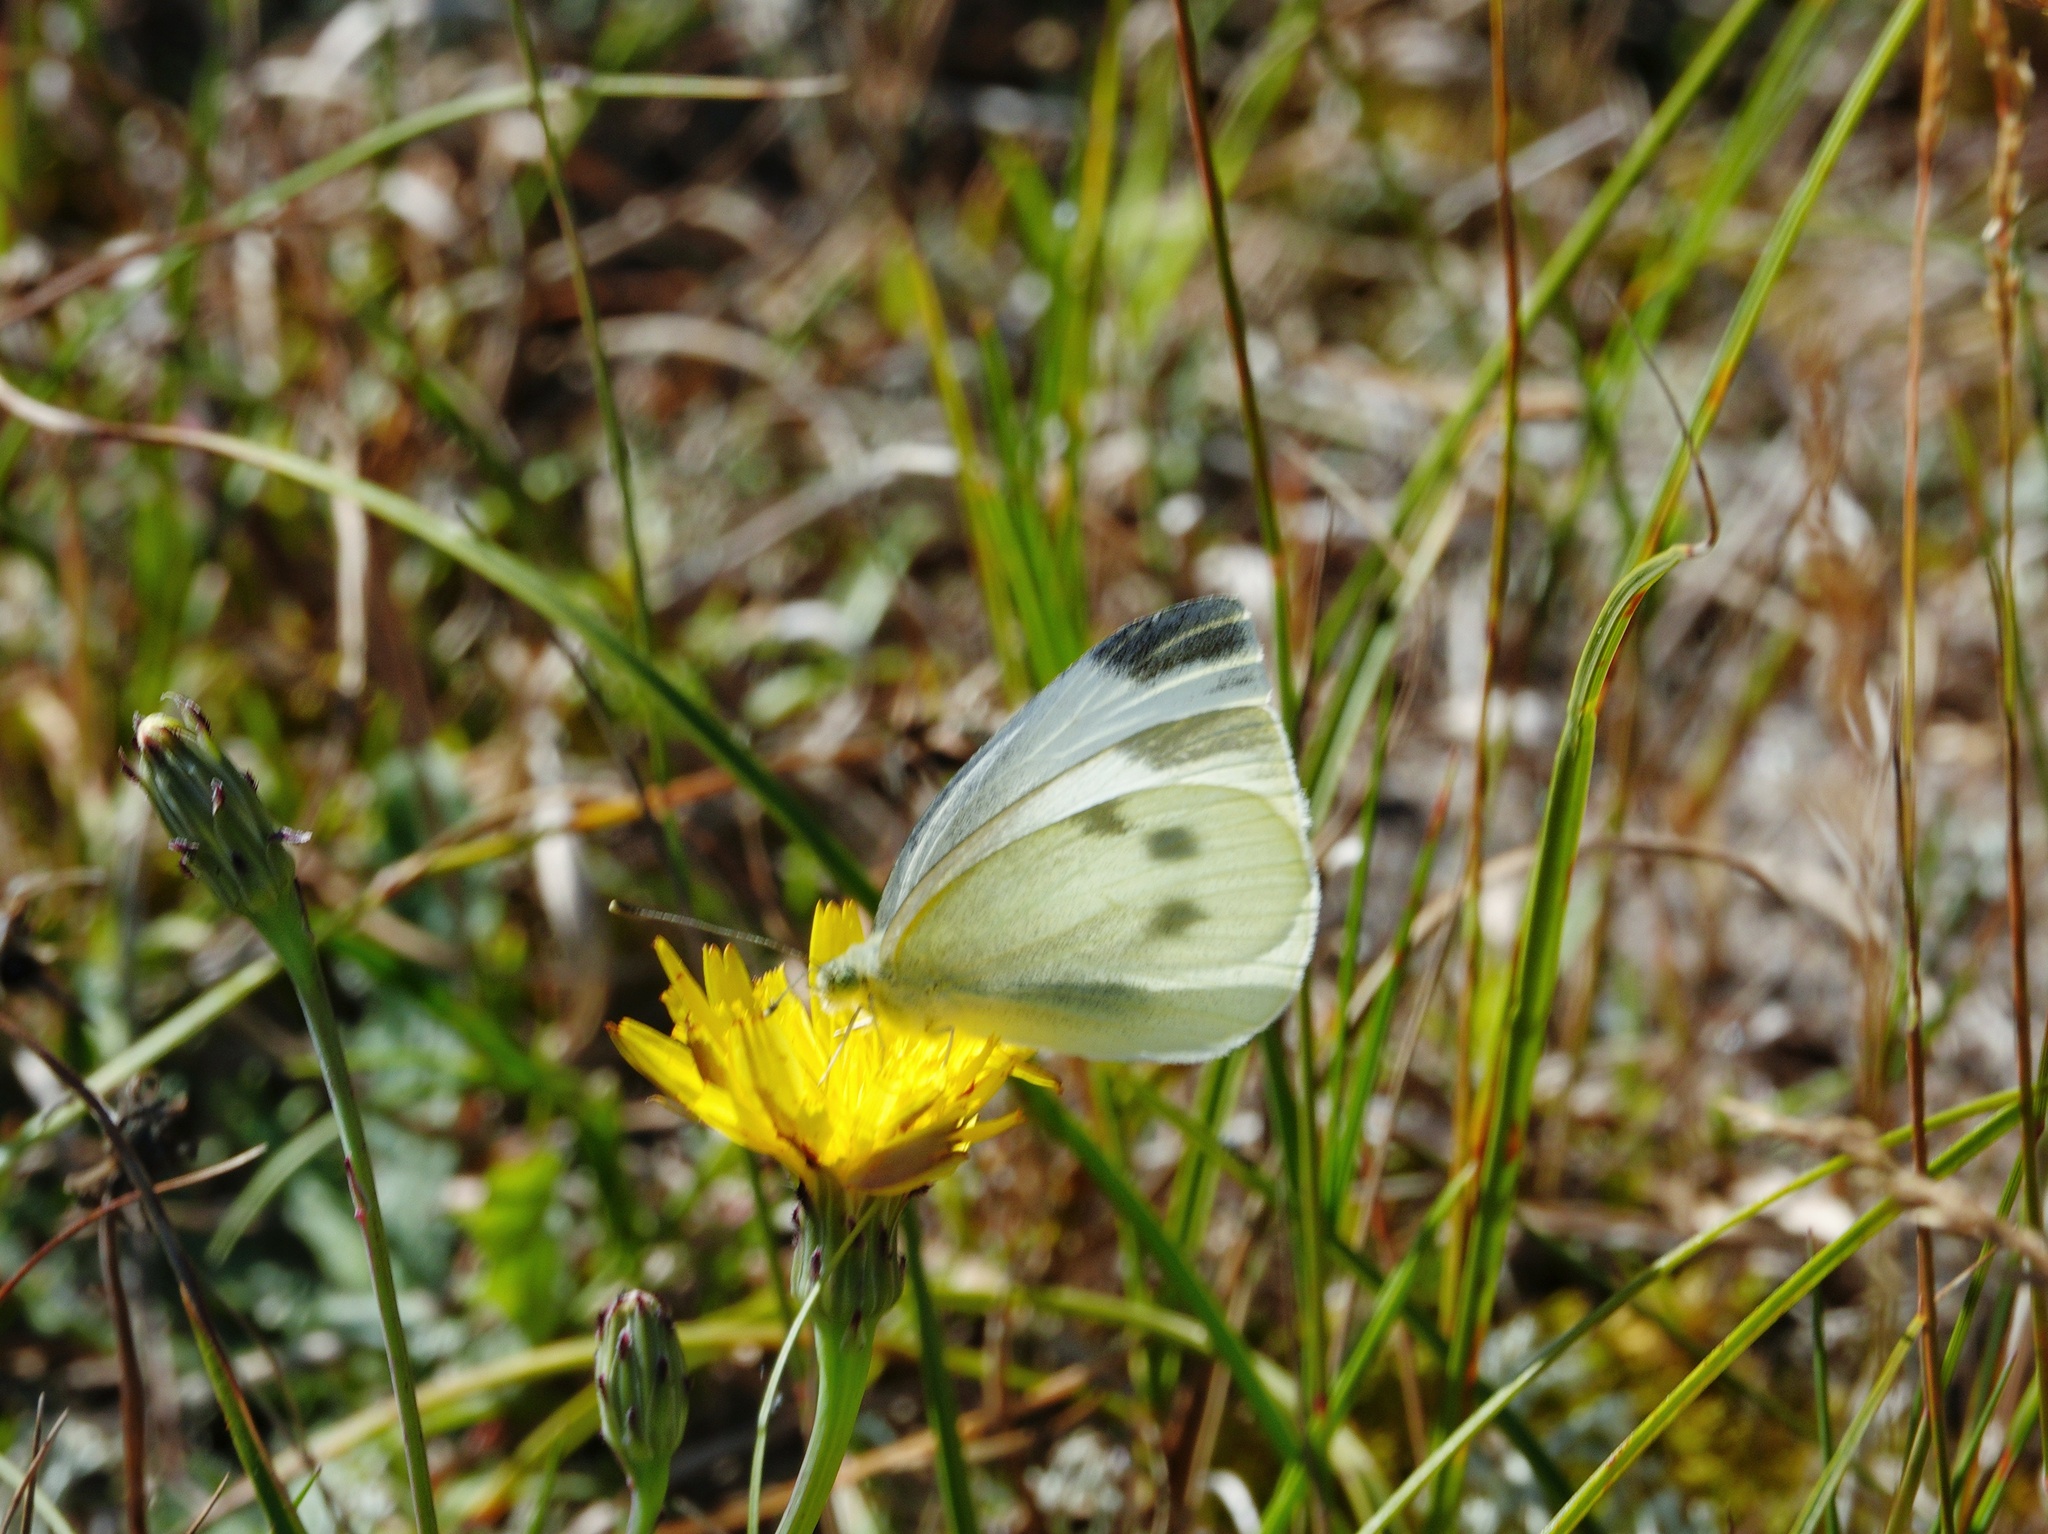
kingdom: Animalia
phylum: Arthropoda
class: Insecta
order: Lepidoptera
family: Pieridae
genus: Pieris
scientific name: Pieris rapae
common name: Small white
